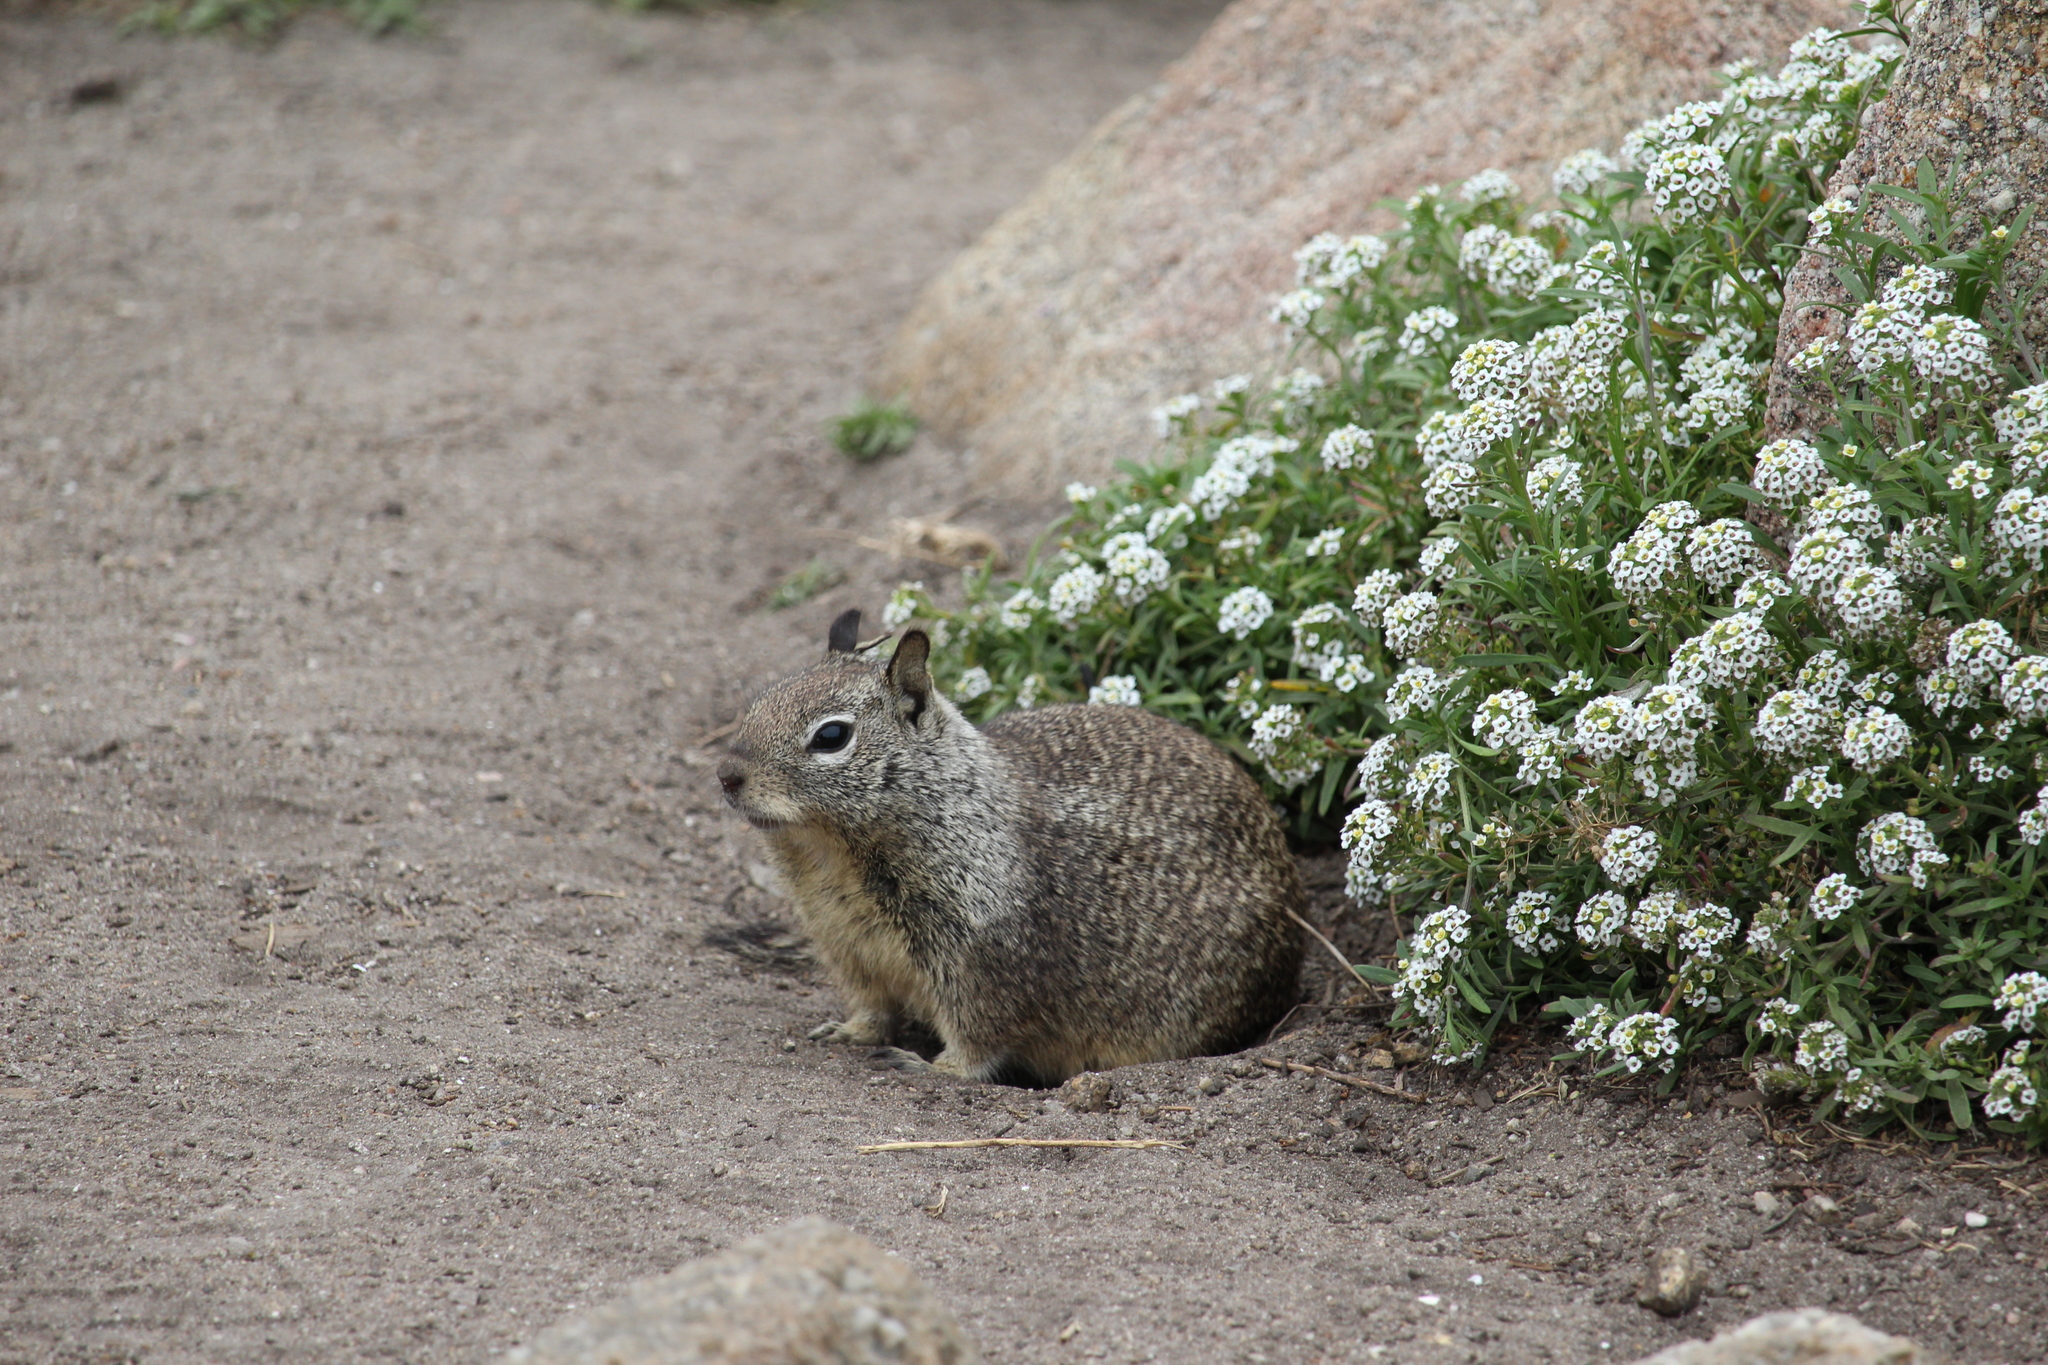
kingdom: Animalia
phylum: Chordata
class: Mammalia
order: Rodentia
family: Sciuridae
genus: Otospermophilus
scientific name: Otospermophilus beecheyi
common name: California ground squirrel
